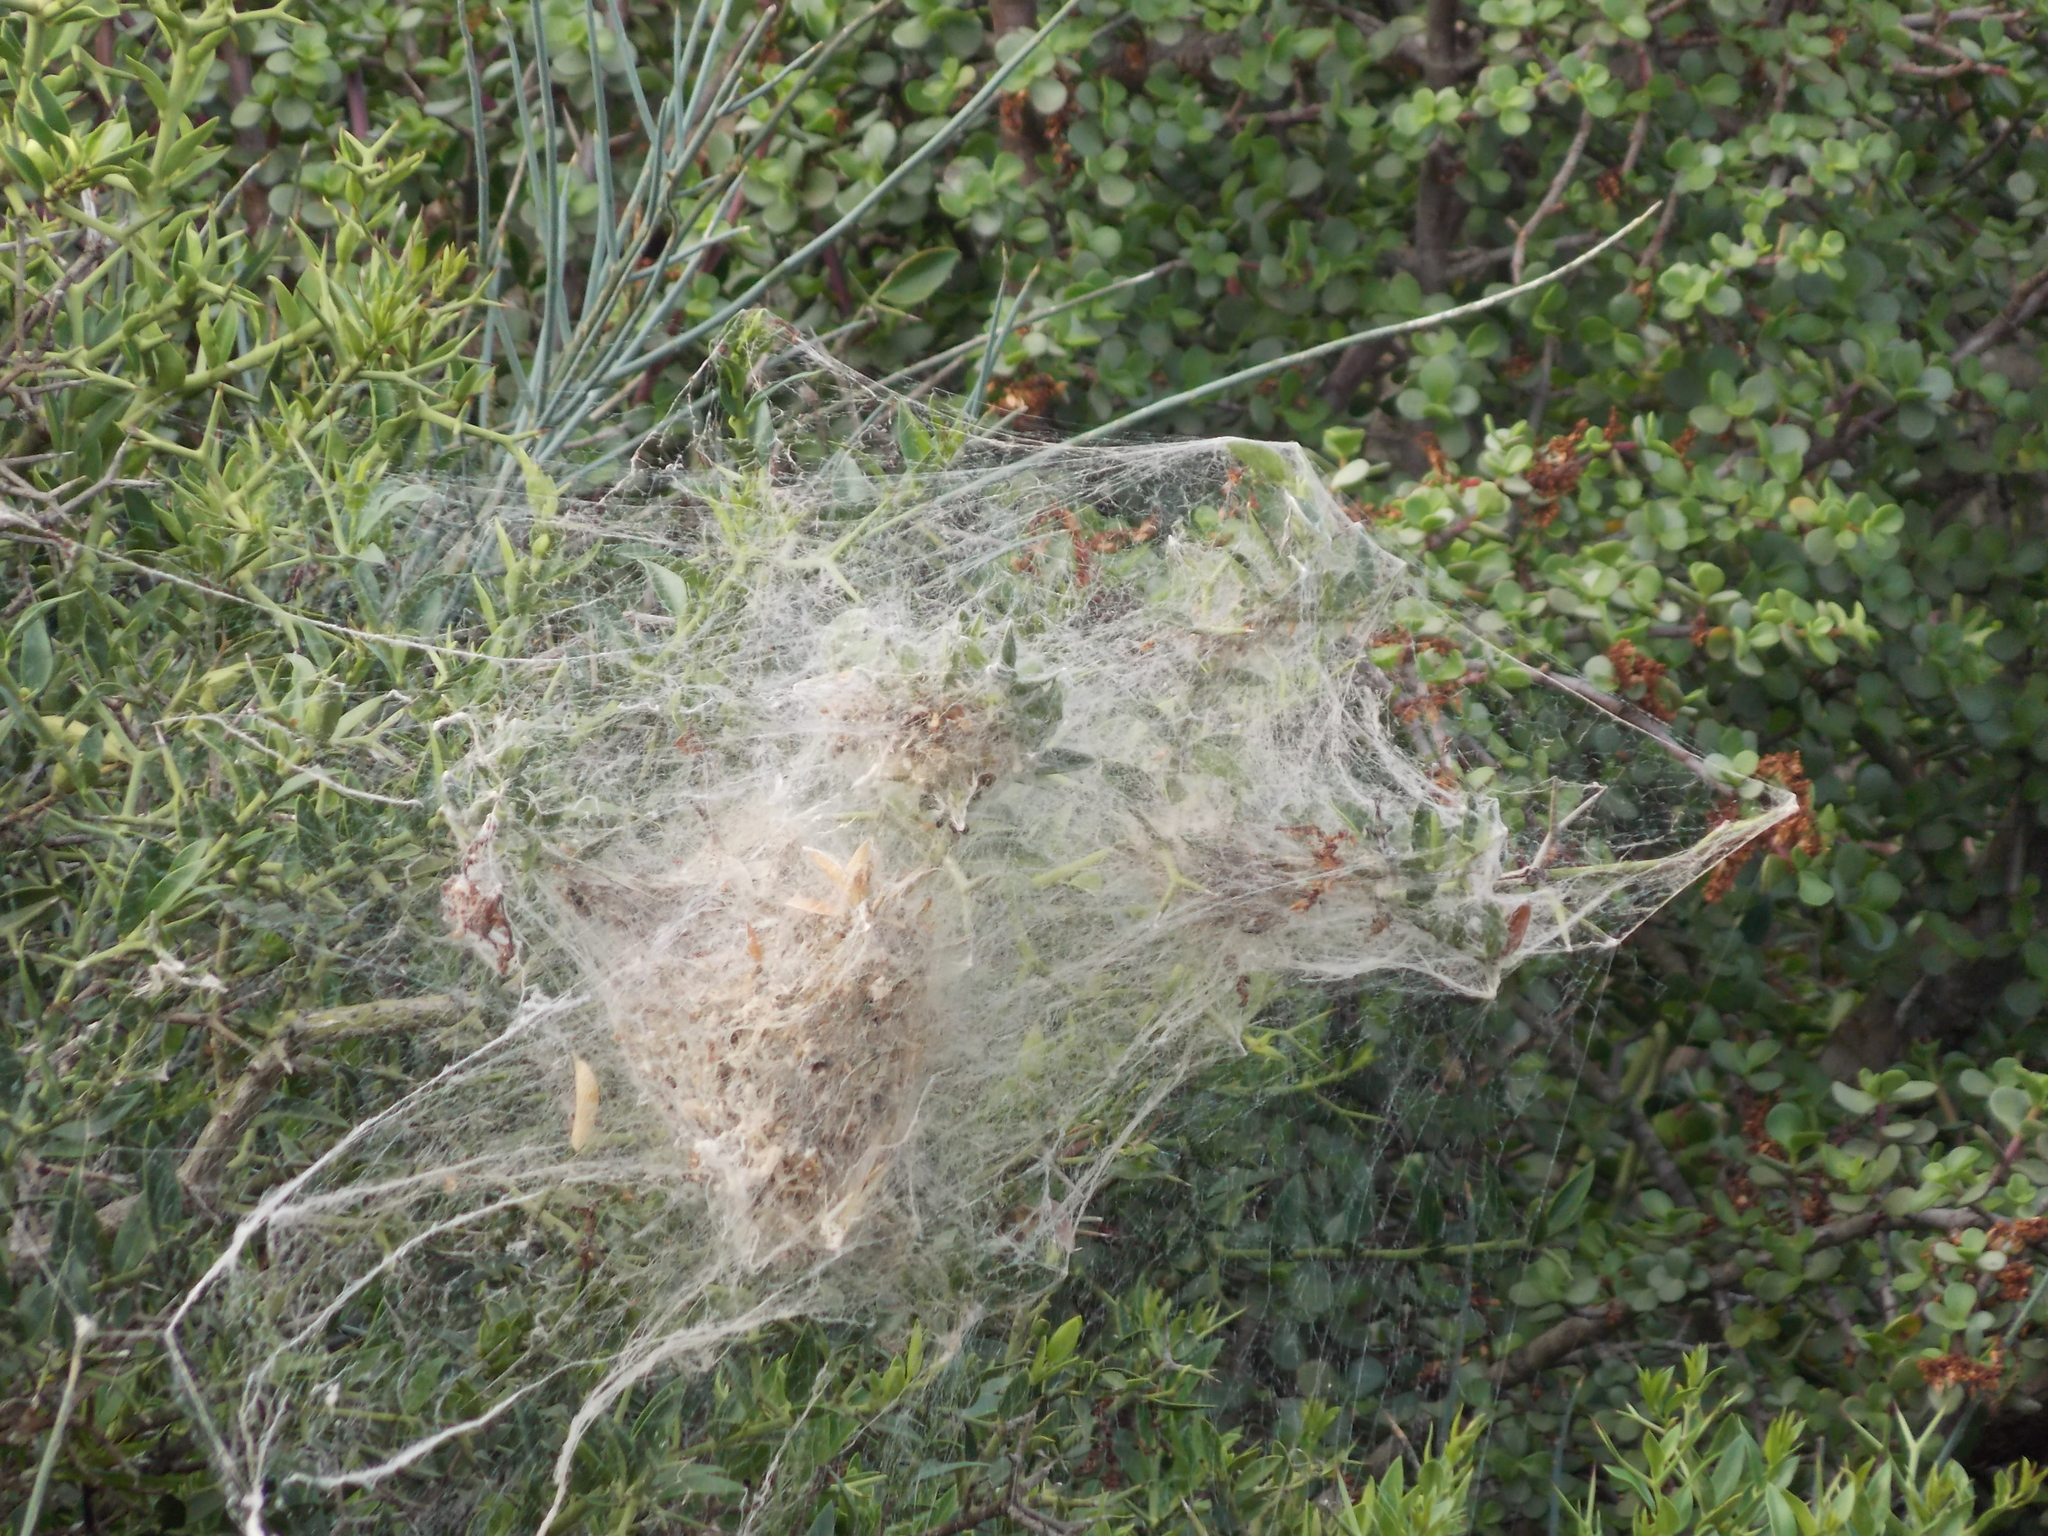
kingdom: Animalia
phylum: Arthropoda
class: Arachnida
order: Araneae
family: Eresidae
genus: Stegodyphus
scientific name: Stegodyphus dumicola
